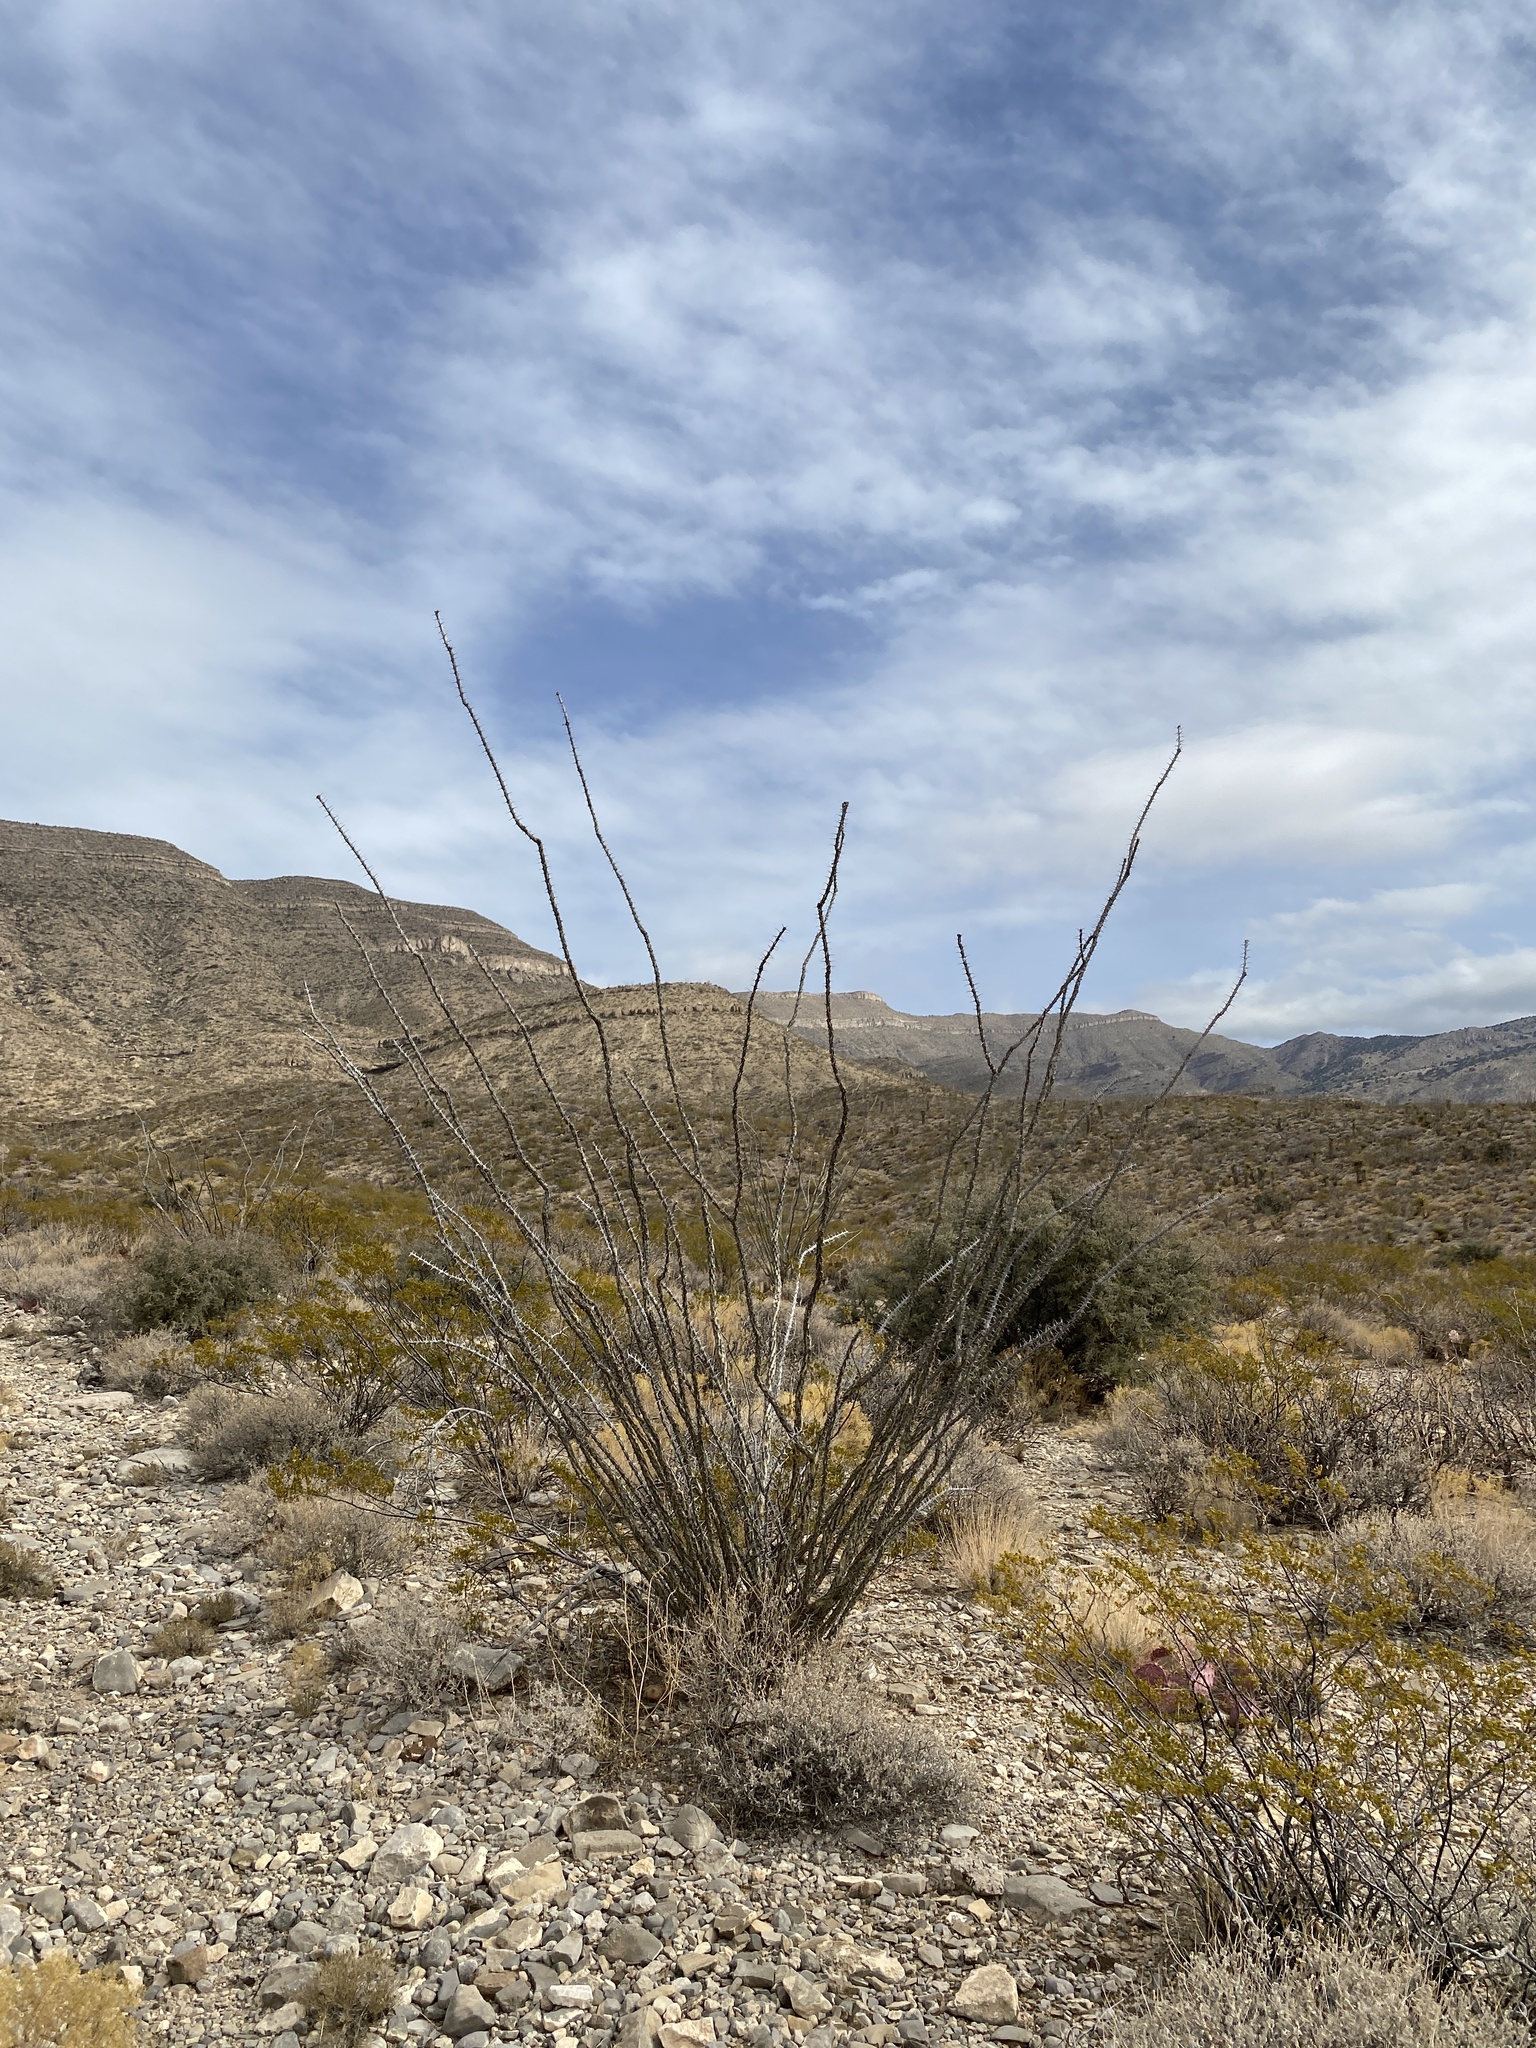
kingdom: Plantae
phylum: Tracheophyta
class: Magnoliopsida
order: Ericales
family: Fouquieriaceae
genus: Fouquieria
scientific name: Fouquieria splendens
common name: Vine-cactus
